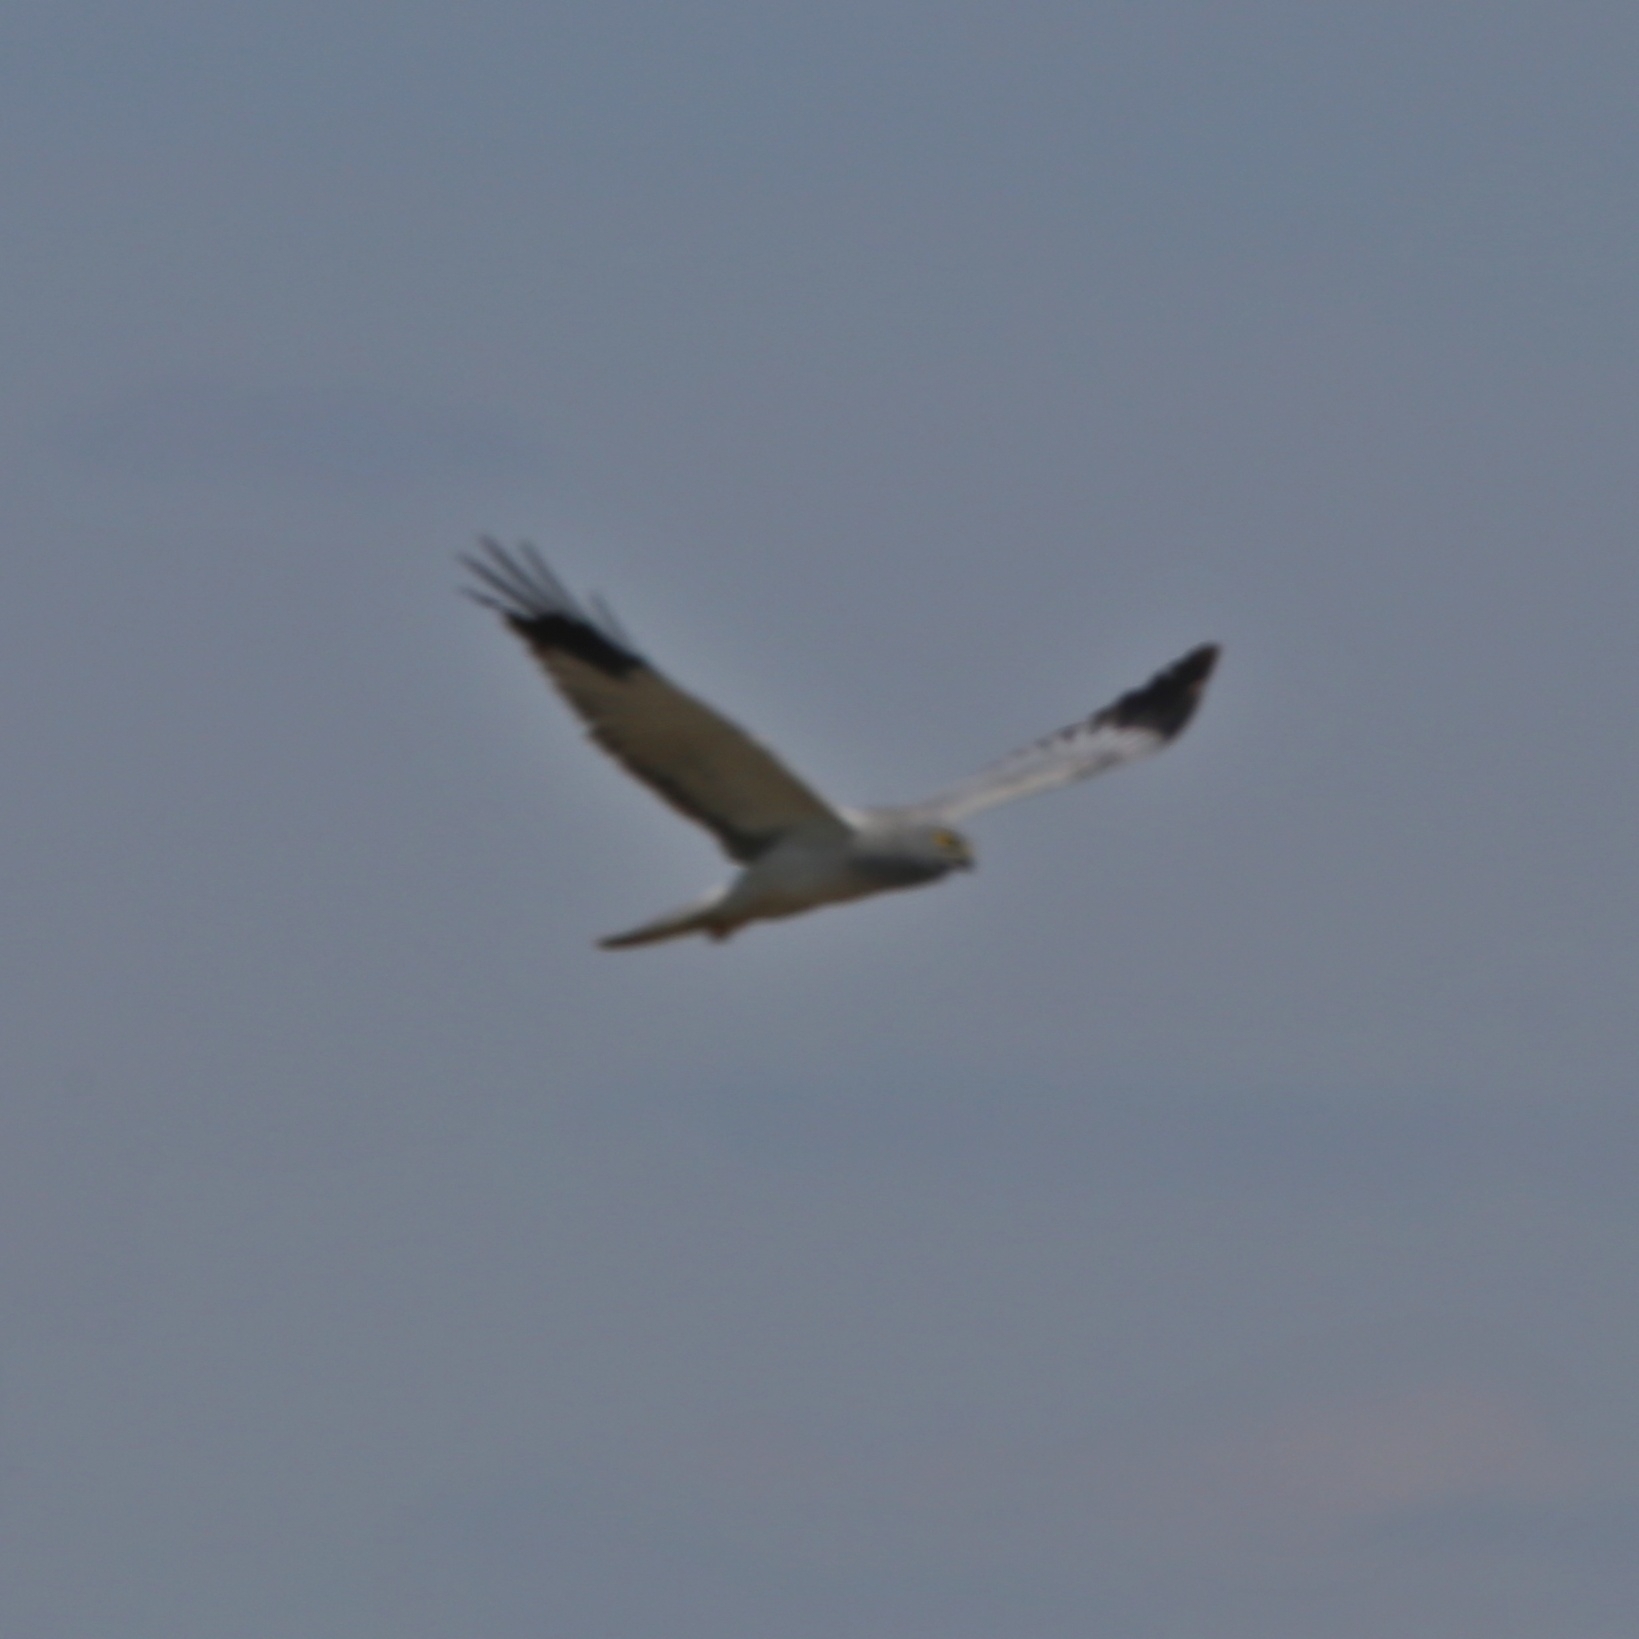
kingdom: Animalia
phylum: Chordata
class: Aves
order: Accipitriformes
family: Accipitridae
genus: Circus
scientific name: Circus cyaneus
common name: Hen harrier
